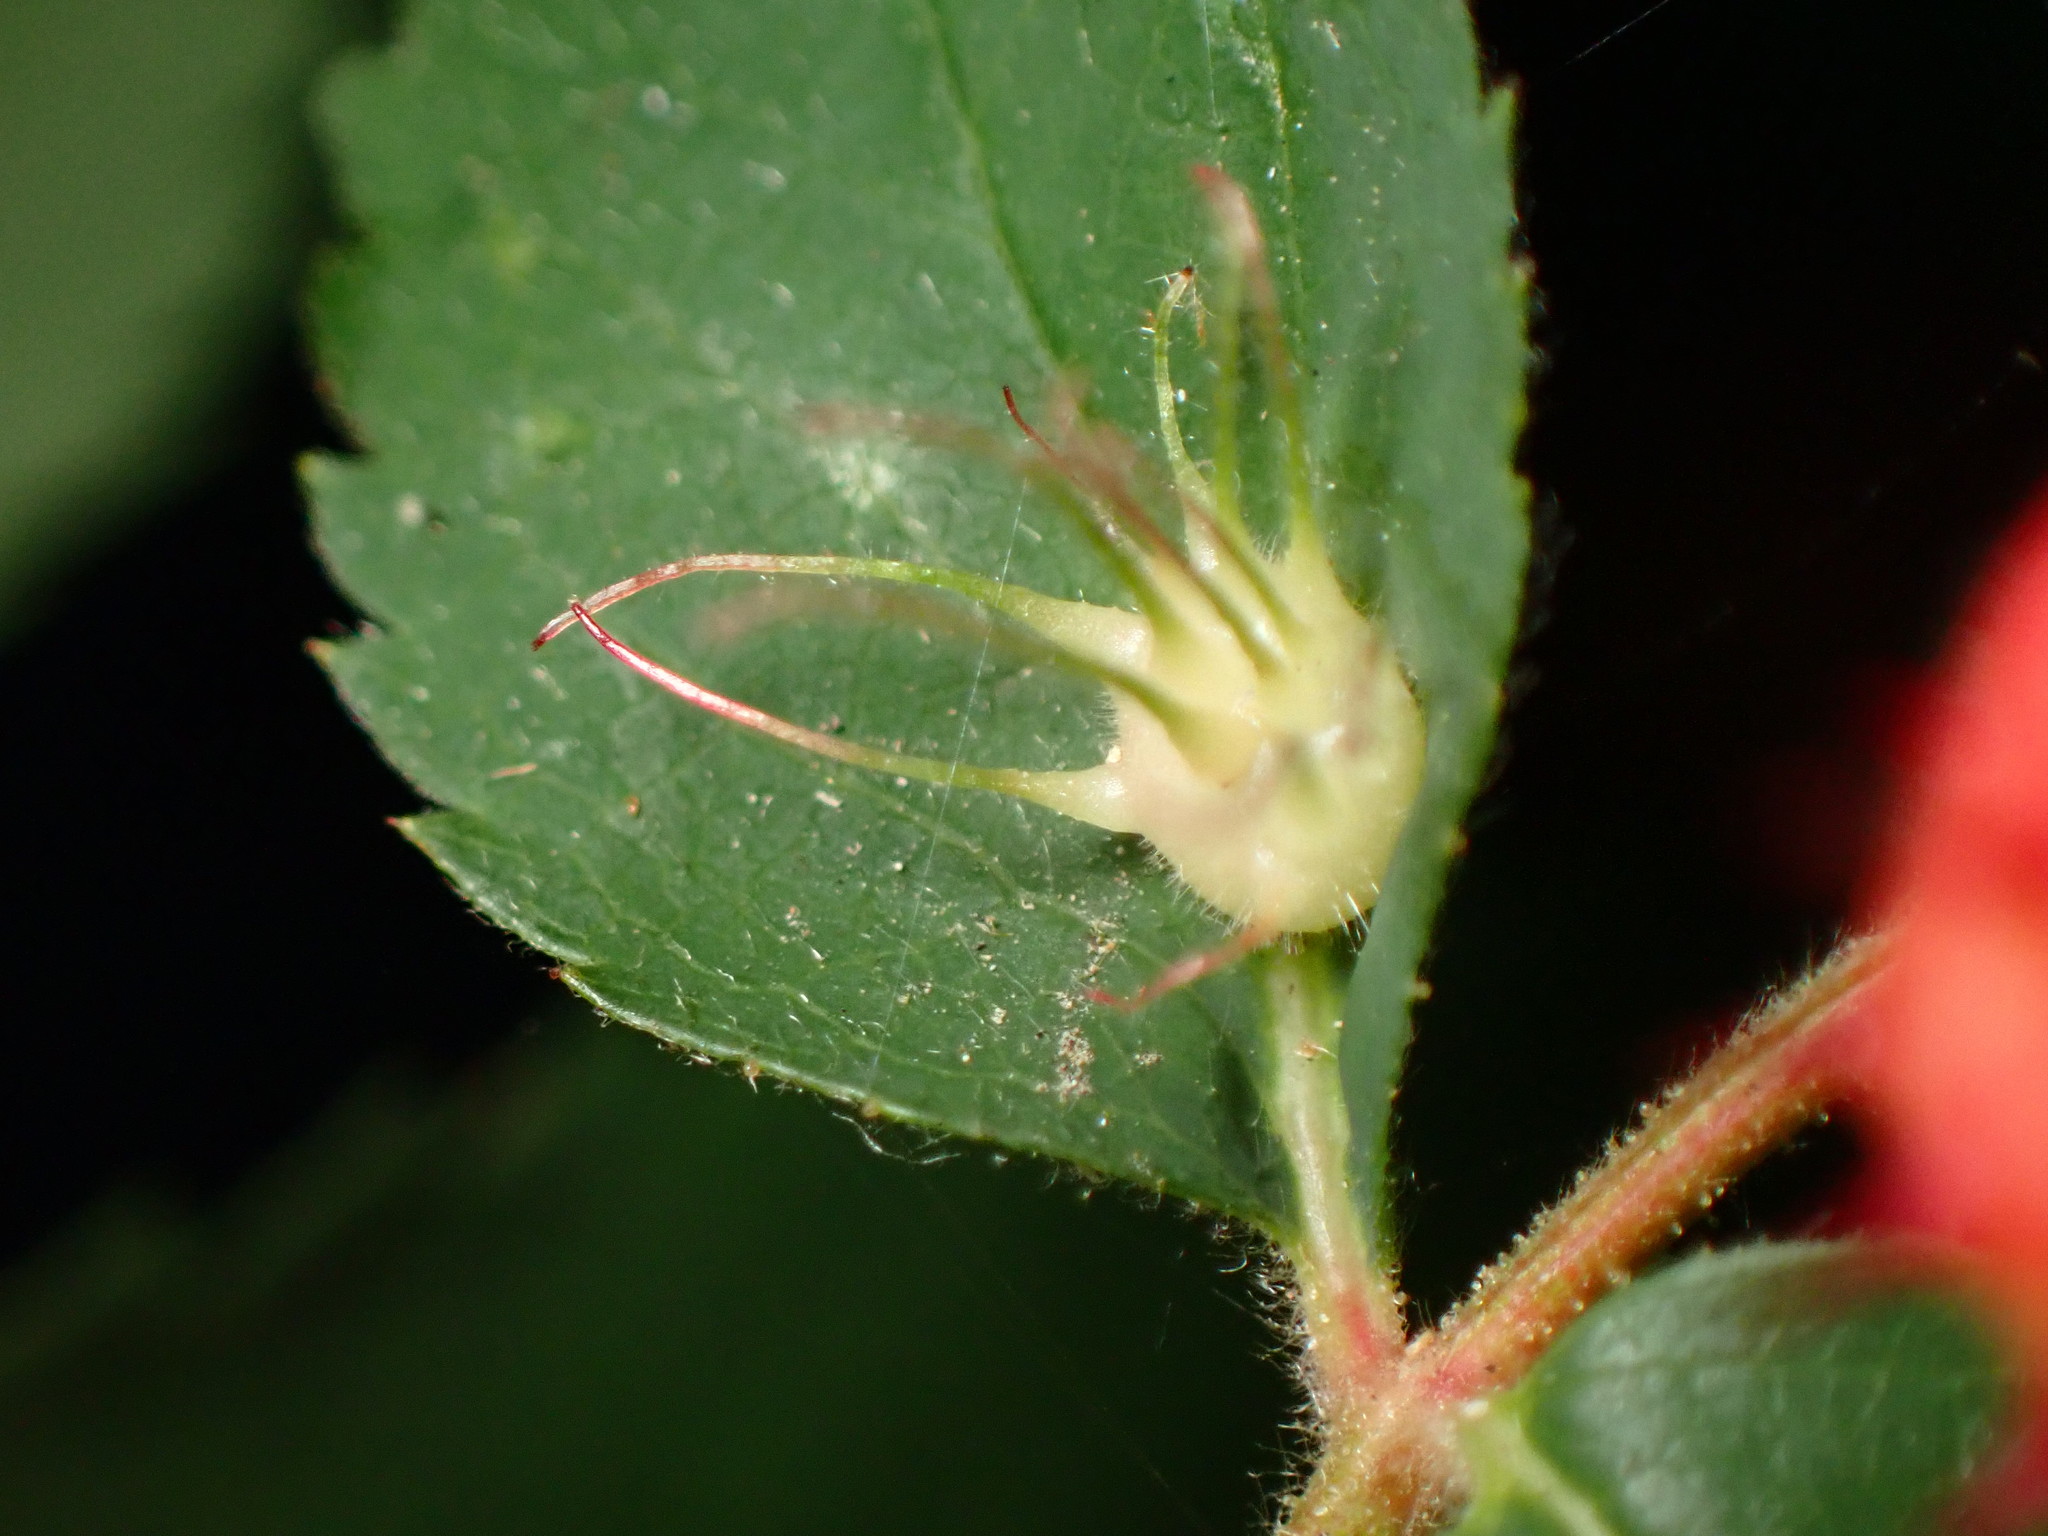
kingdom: Animalia
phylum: Arthropoda
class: Insecta
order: Hymenoptera
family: Cynipidae
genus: Diplolepis
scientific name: Diplolepis
